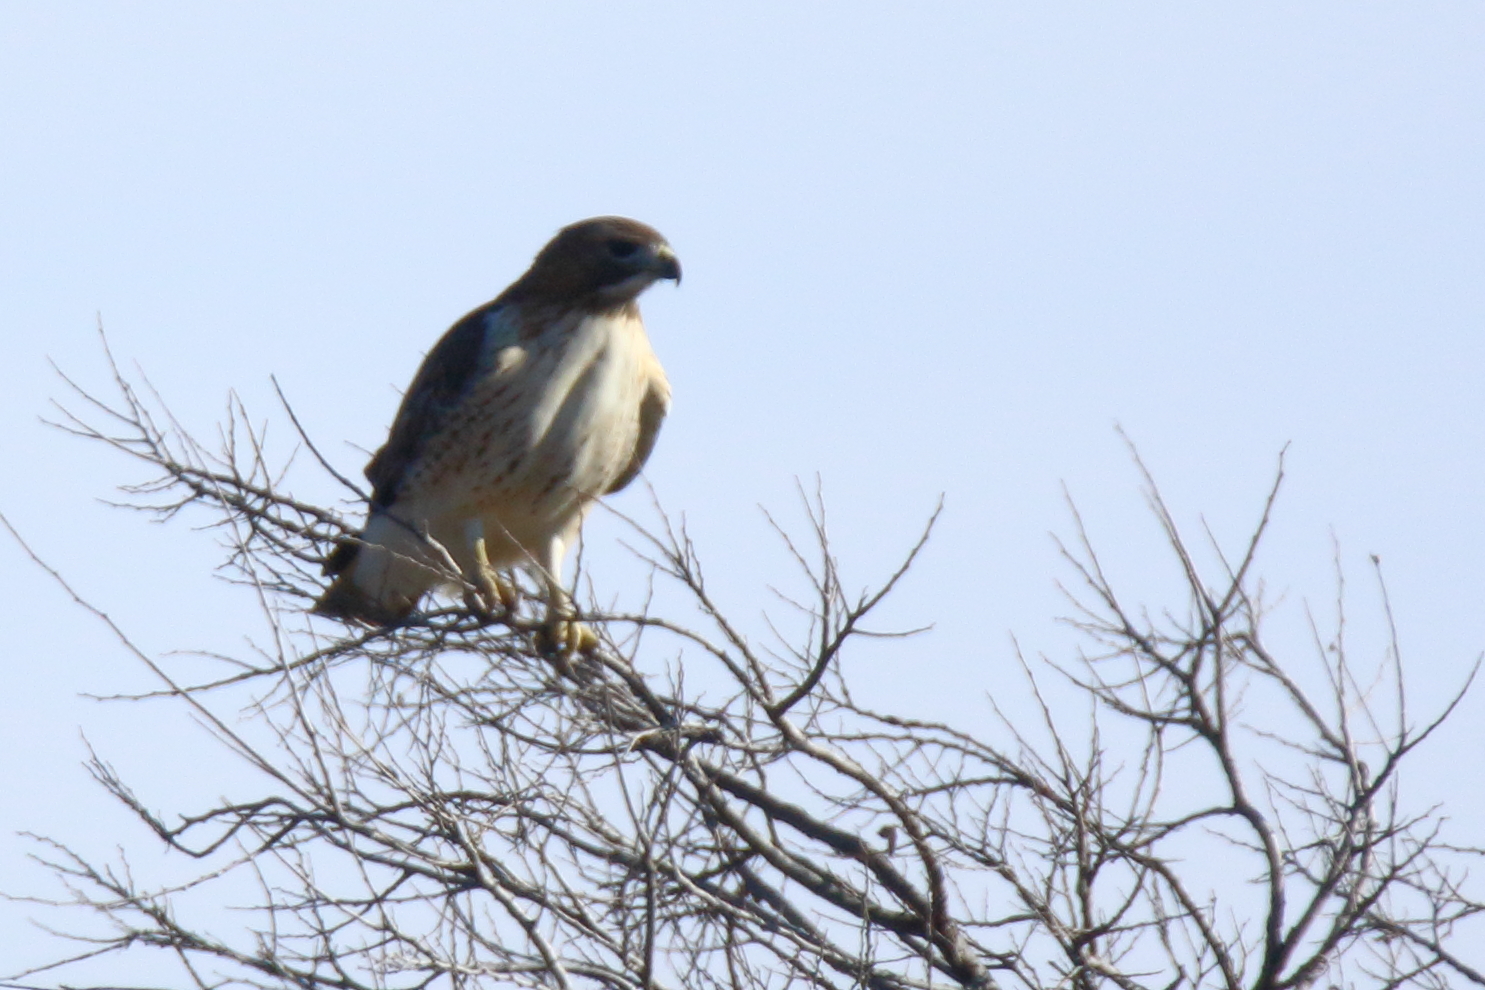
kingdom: Animalia
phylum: Chordata
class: Aves
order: Accipitriformes
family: Accipitridae
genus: Buteo
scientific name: Buteo jamaicensis
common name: Red-tailed hawk
